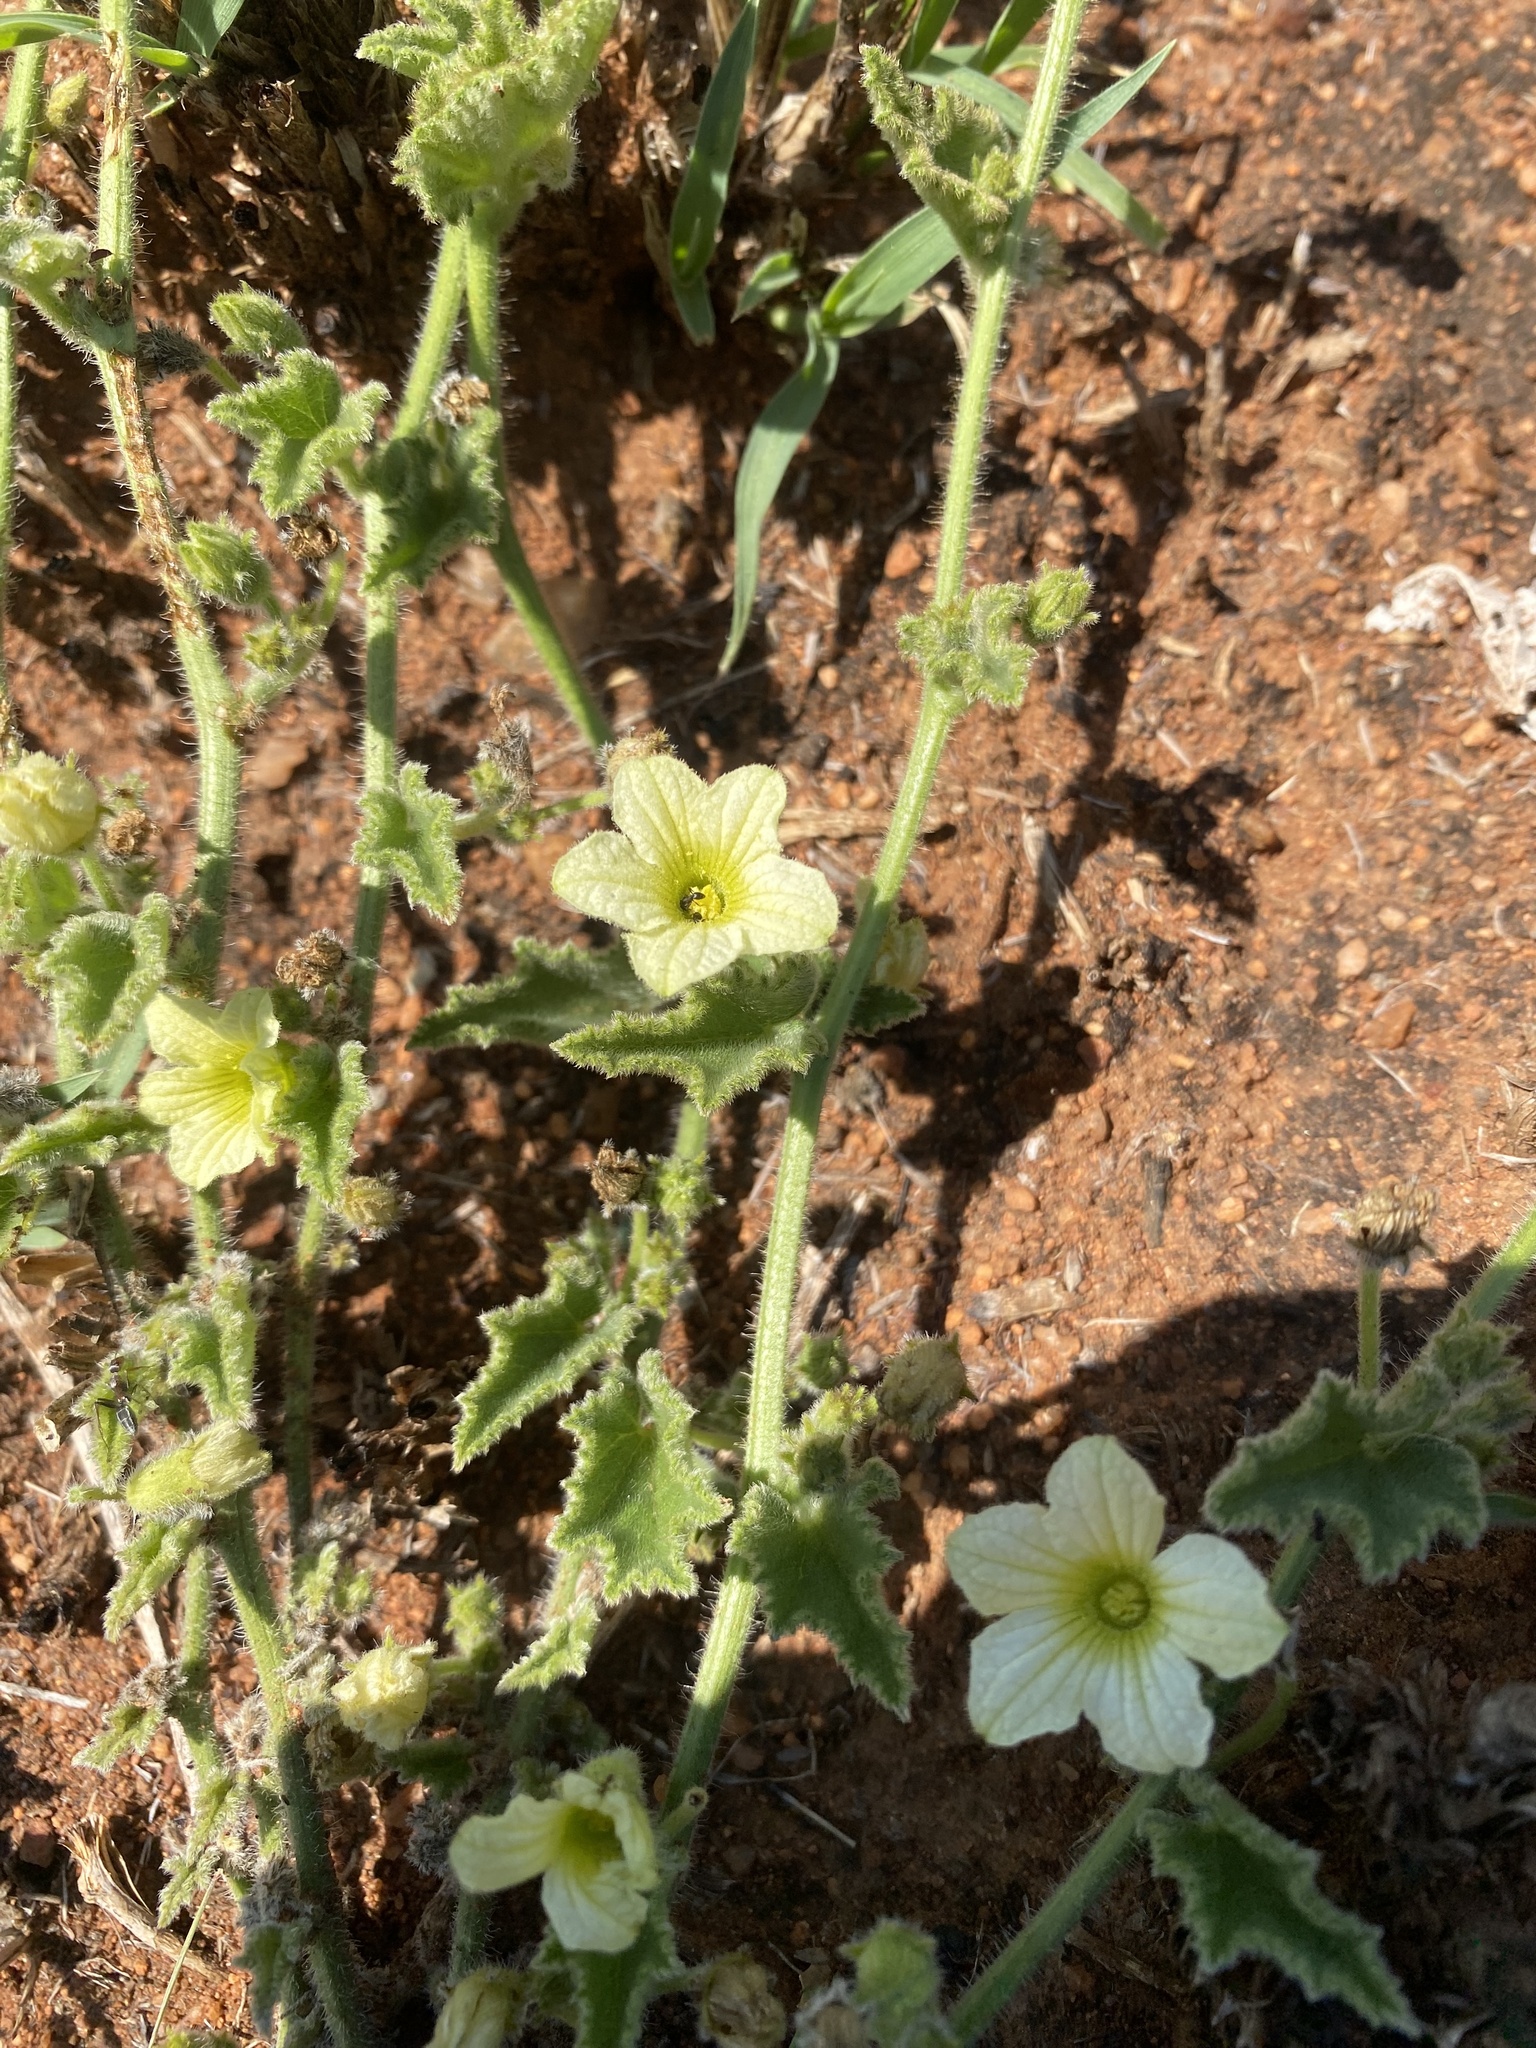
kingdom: Plantae
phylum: Tracheophyta
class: Magnoliopsida
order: Cucurbitales
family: Cucurbitaceae
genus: Cucumis
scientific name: Cucumis hirsutus
